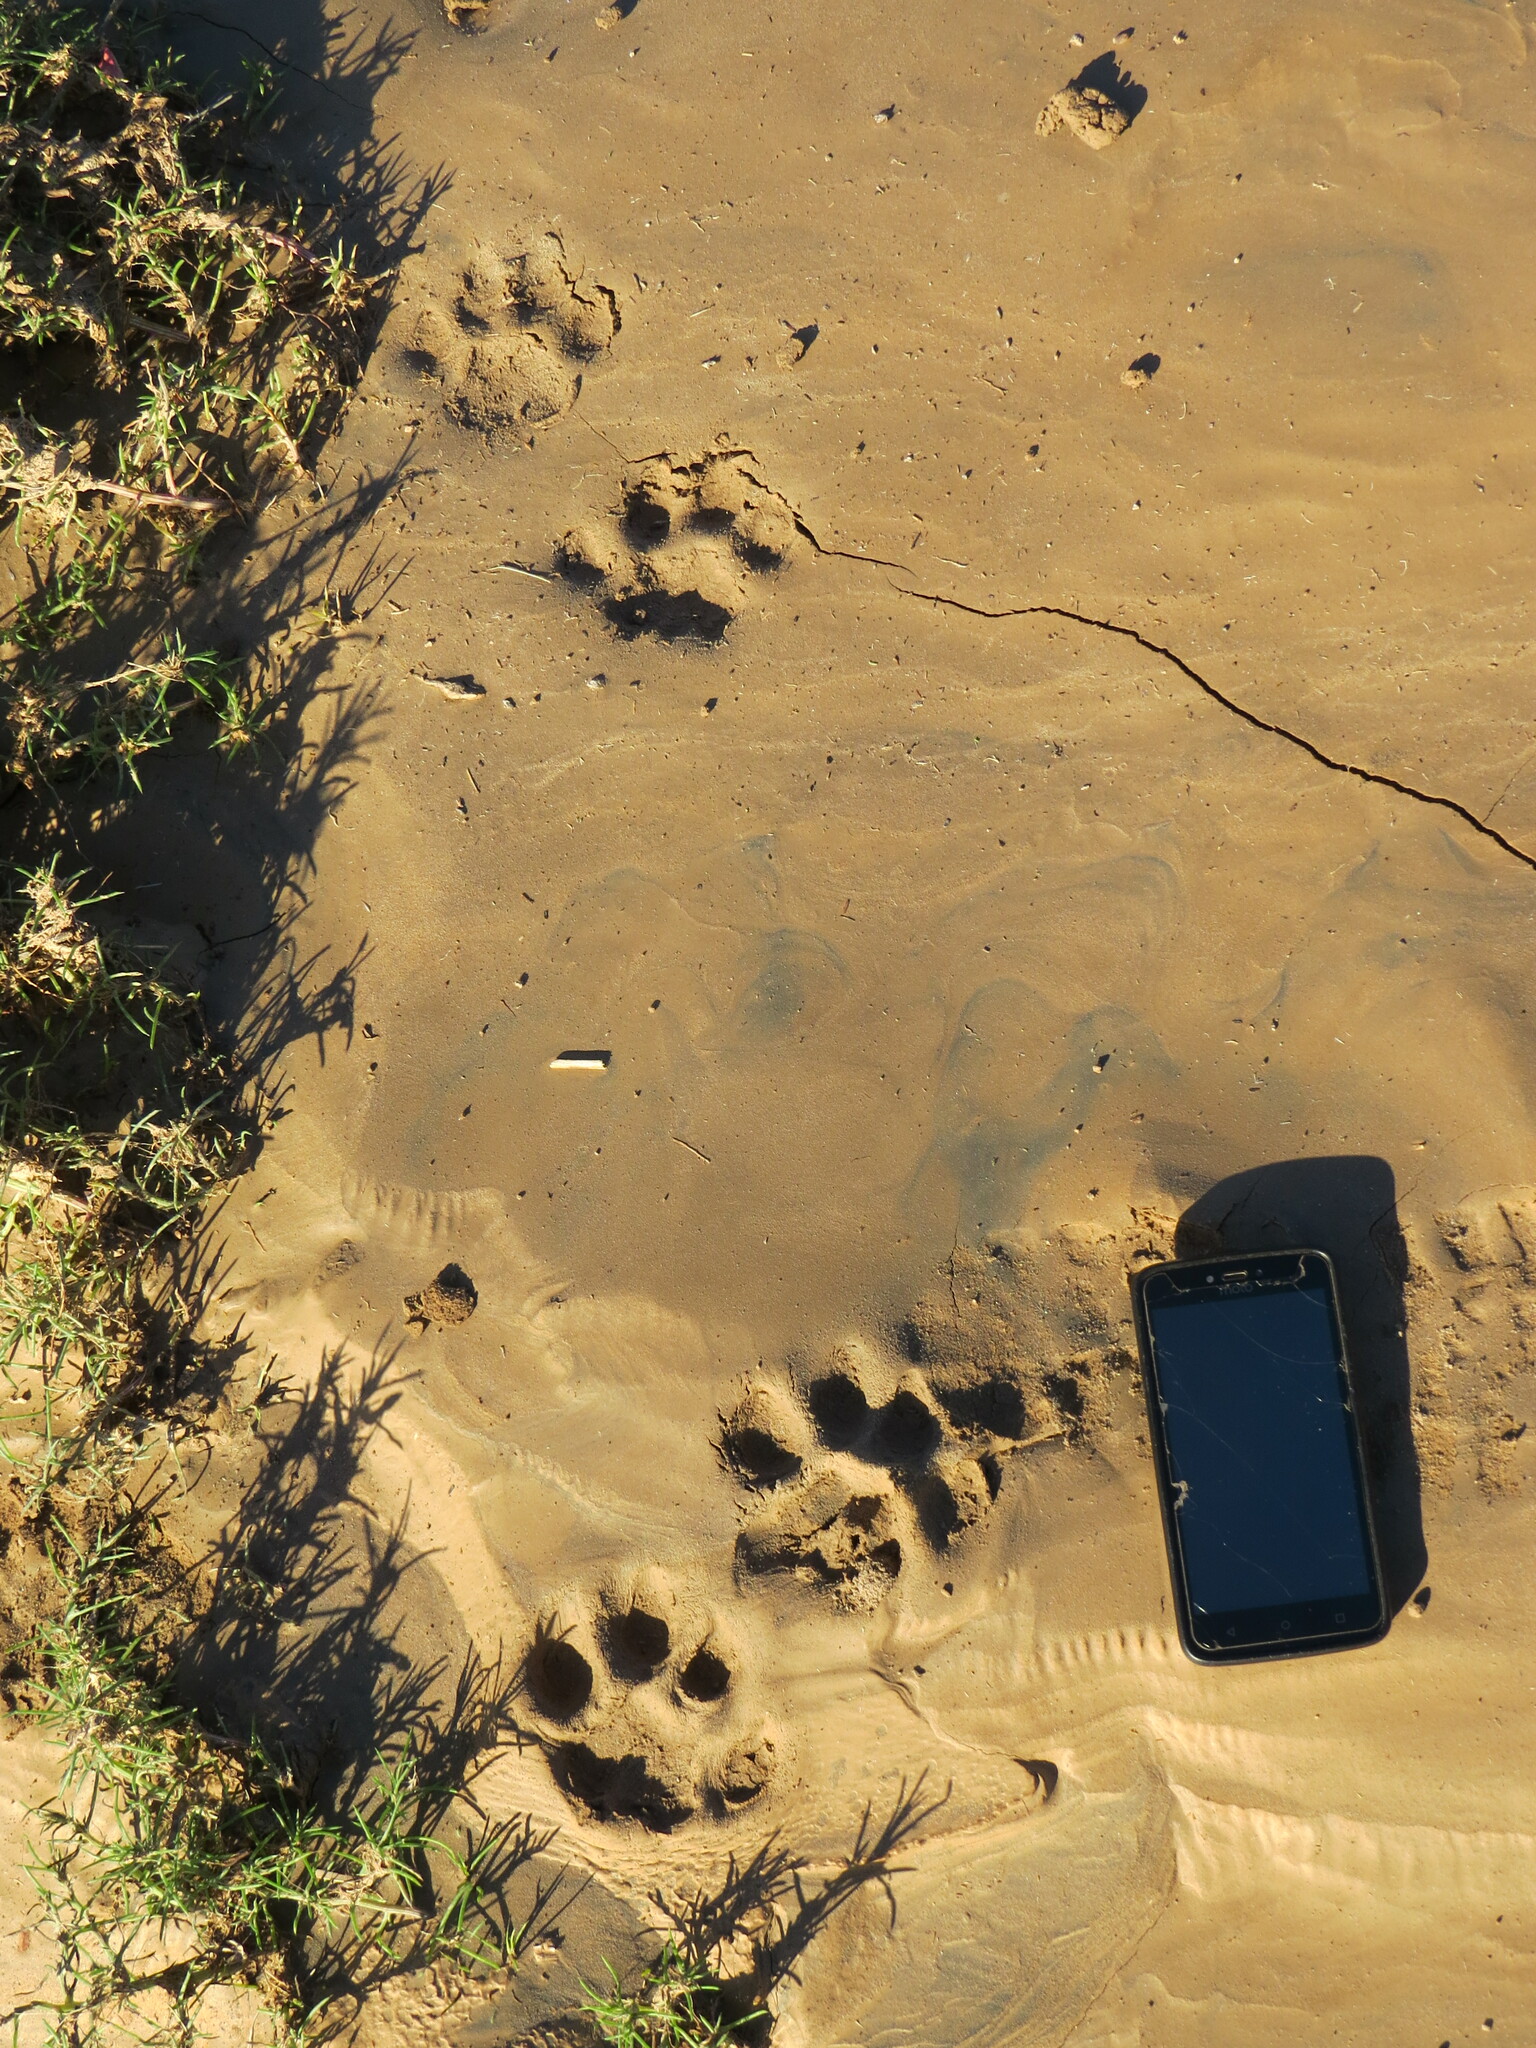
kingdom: Animalia
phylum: Chordata
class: Mammalia
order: Carnivora
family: Felidae
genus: Puma
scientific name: Puma concolor
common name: Puma
